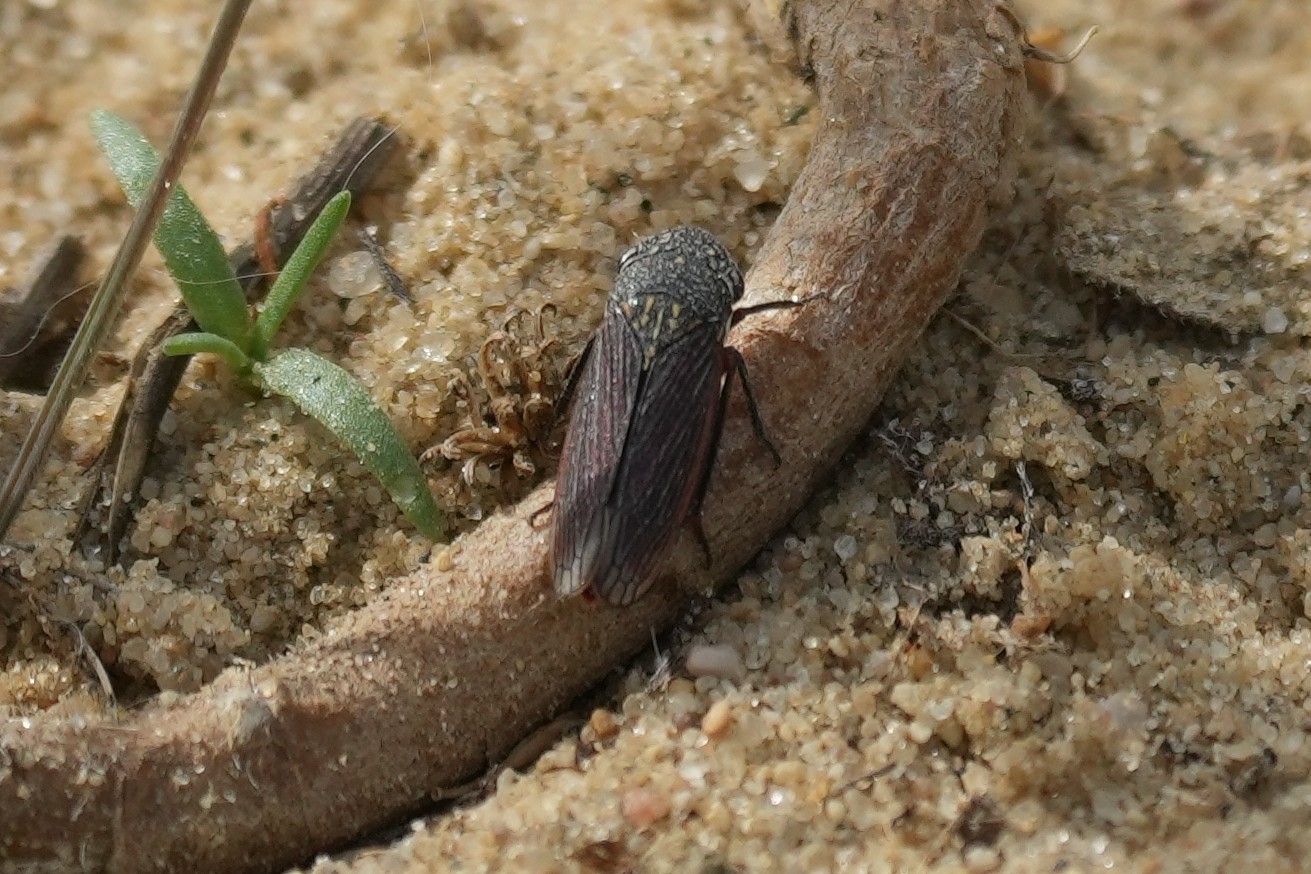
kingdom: Animalia
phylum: Arthropoda
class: Insecta
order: Hemiptera
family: Cicadellidae
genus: Cuerna
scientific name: Cuerna costalis
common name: Lateral-lined sharpshooter
